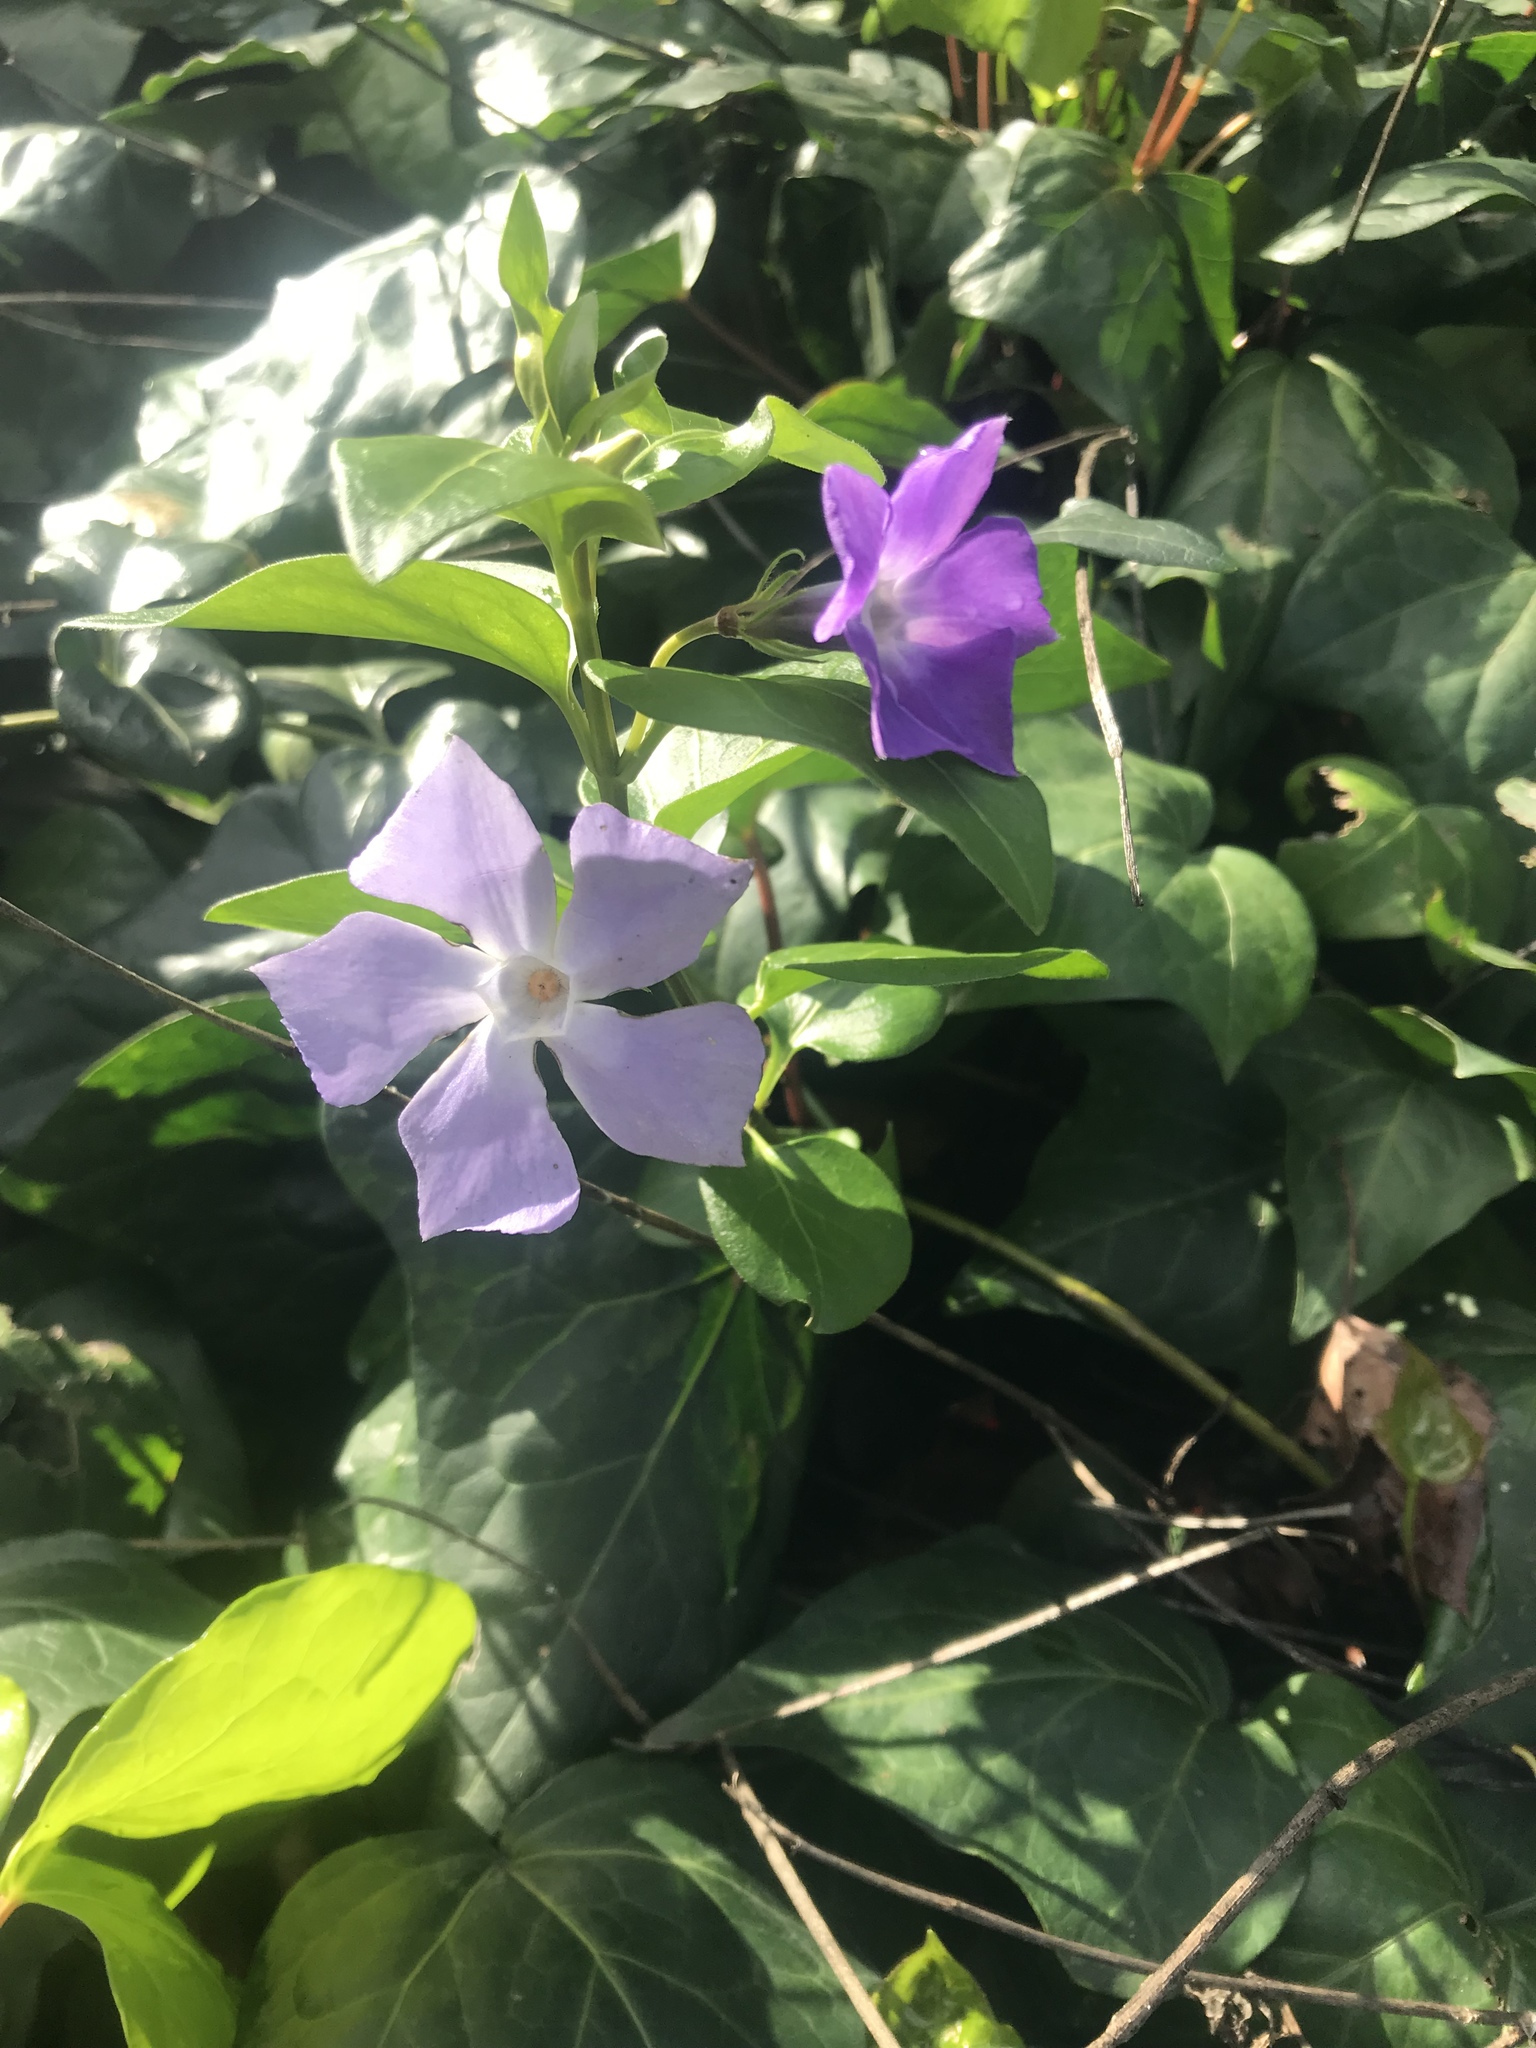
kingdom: Plantae
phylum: Tracheophyta
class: Magnoliopsida
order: Gentianales
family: Apocynaceae
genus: Vinca
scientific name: Vinca major
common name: Greater periwinkle
